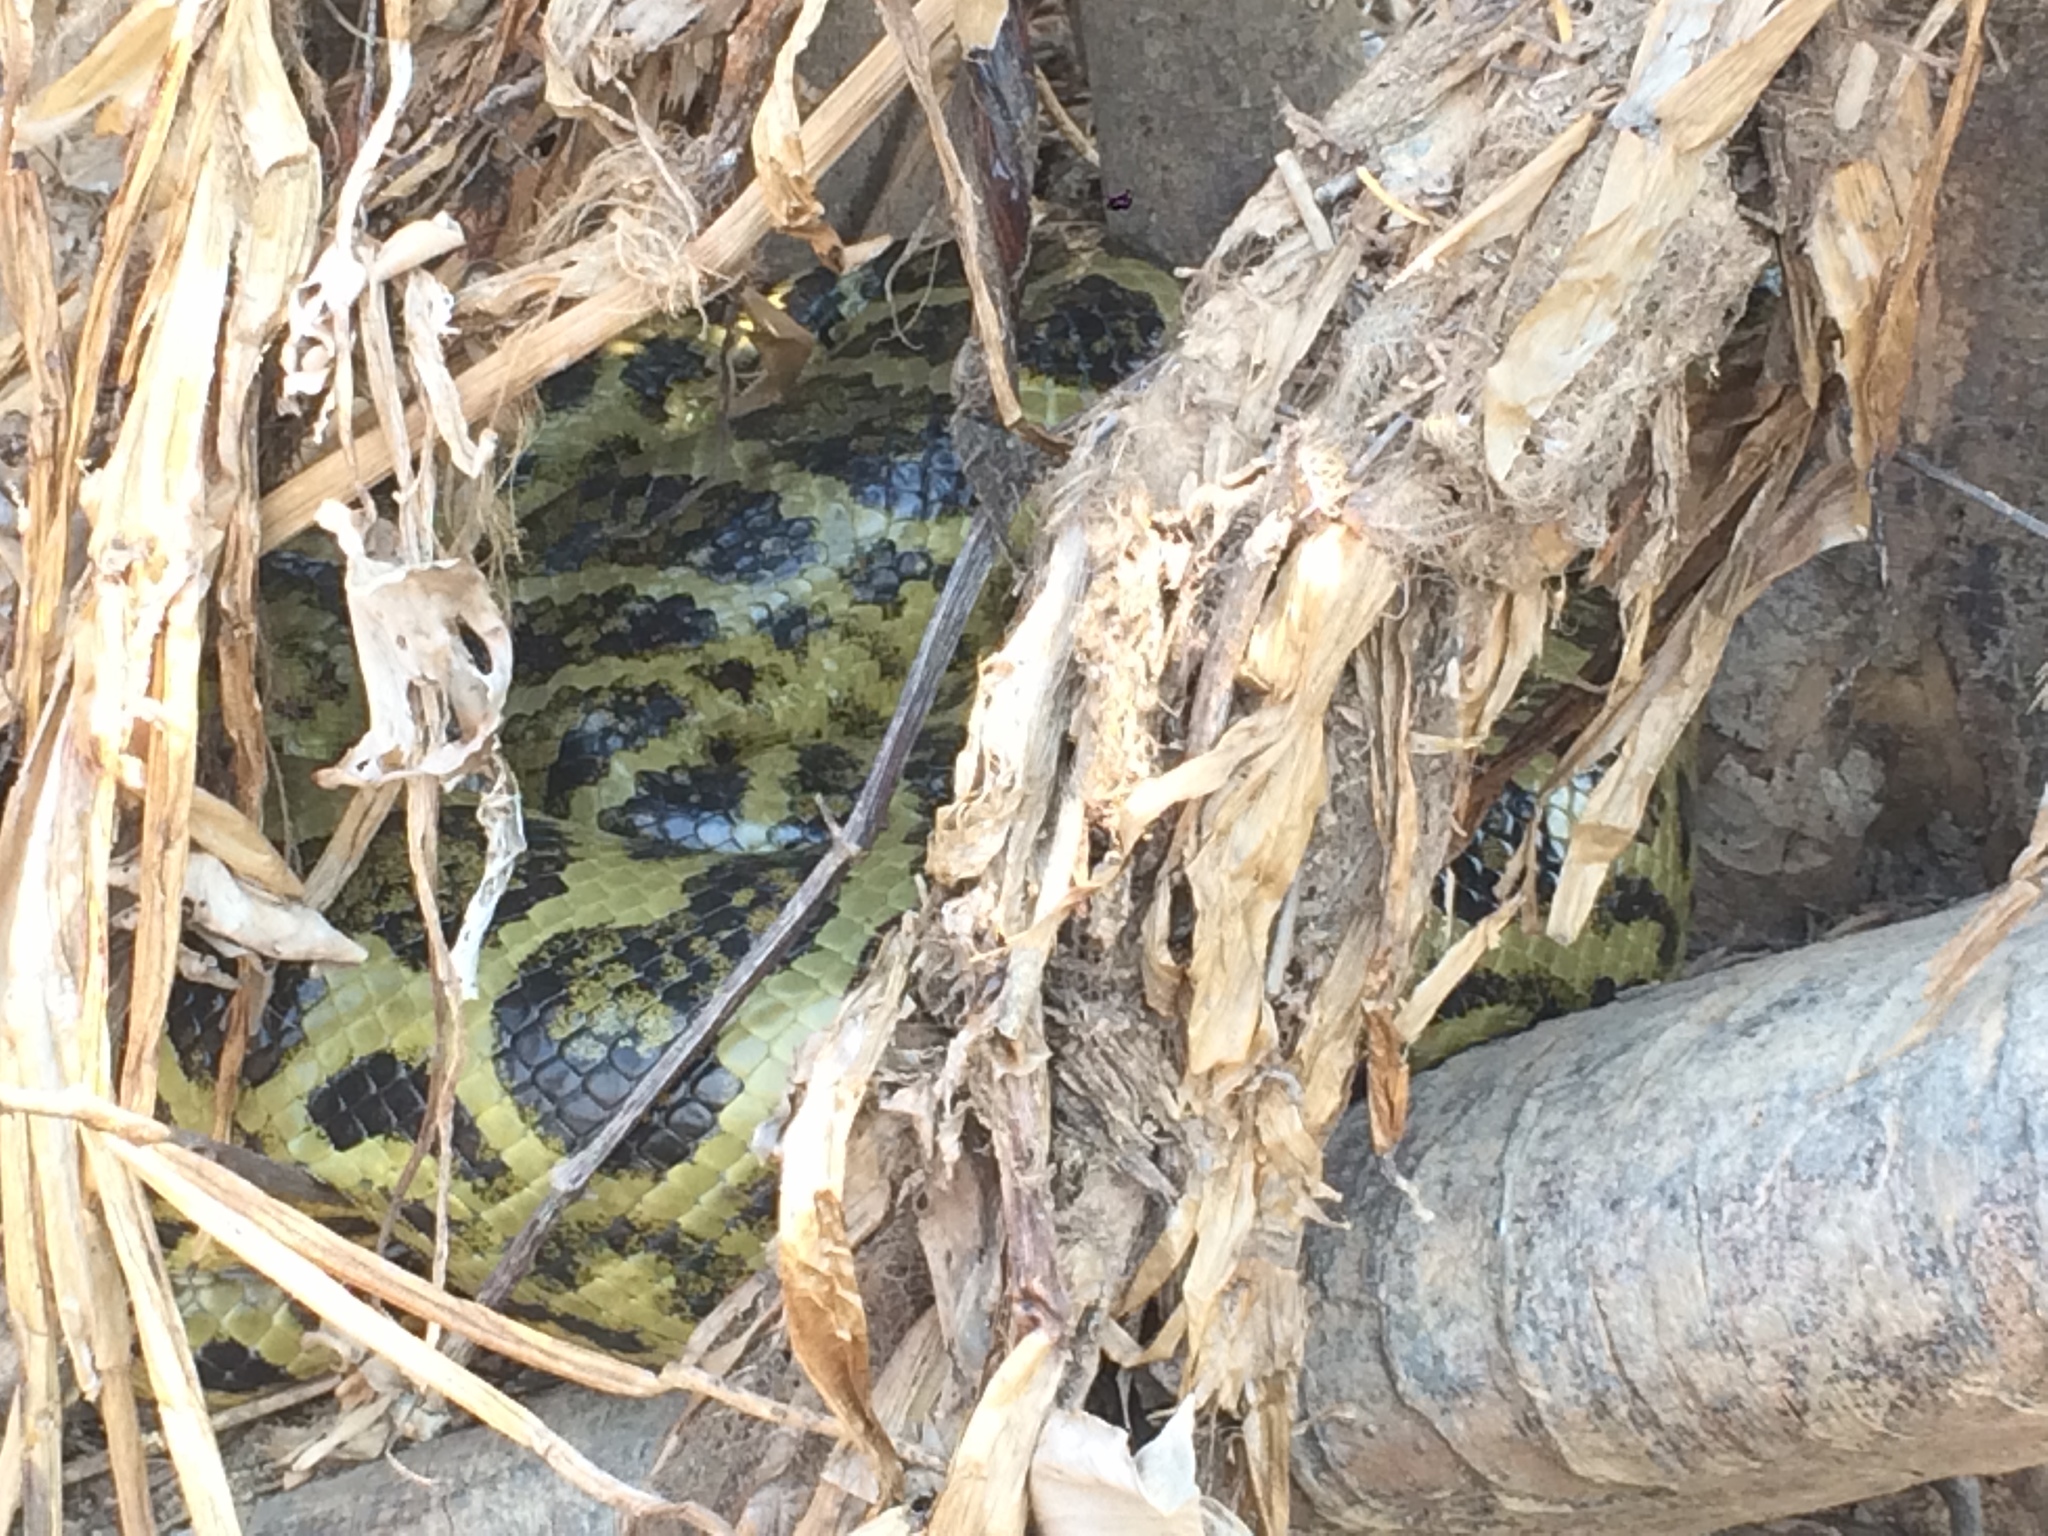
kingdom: Animalia
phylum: Chordata
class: Squamata
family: Boidae
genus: Eunectes
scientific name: Eunectes notaeus
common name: Yellow anaconda
